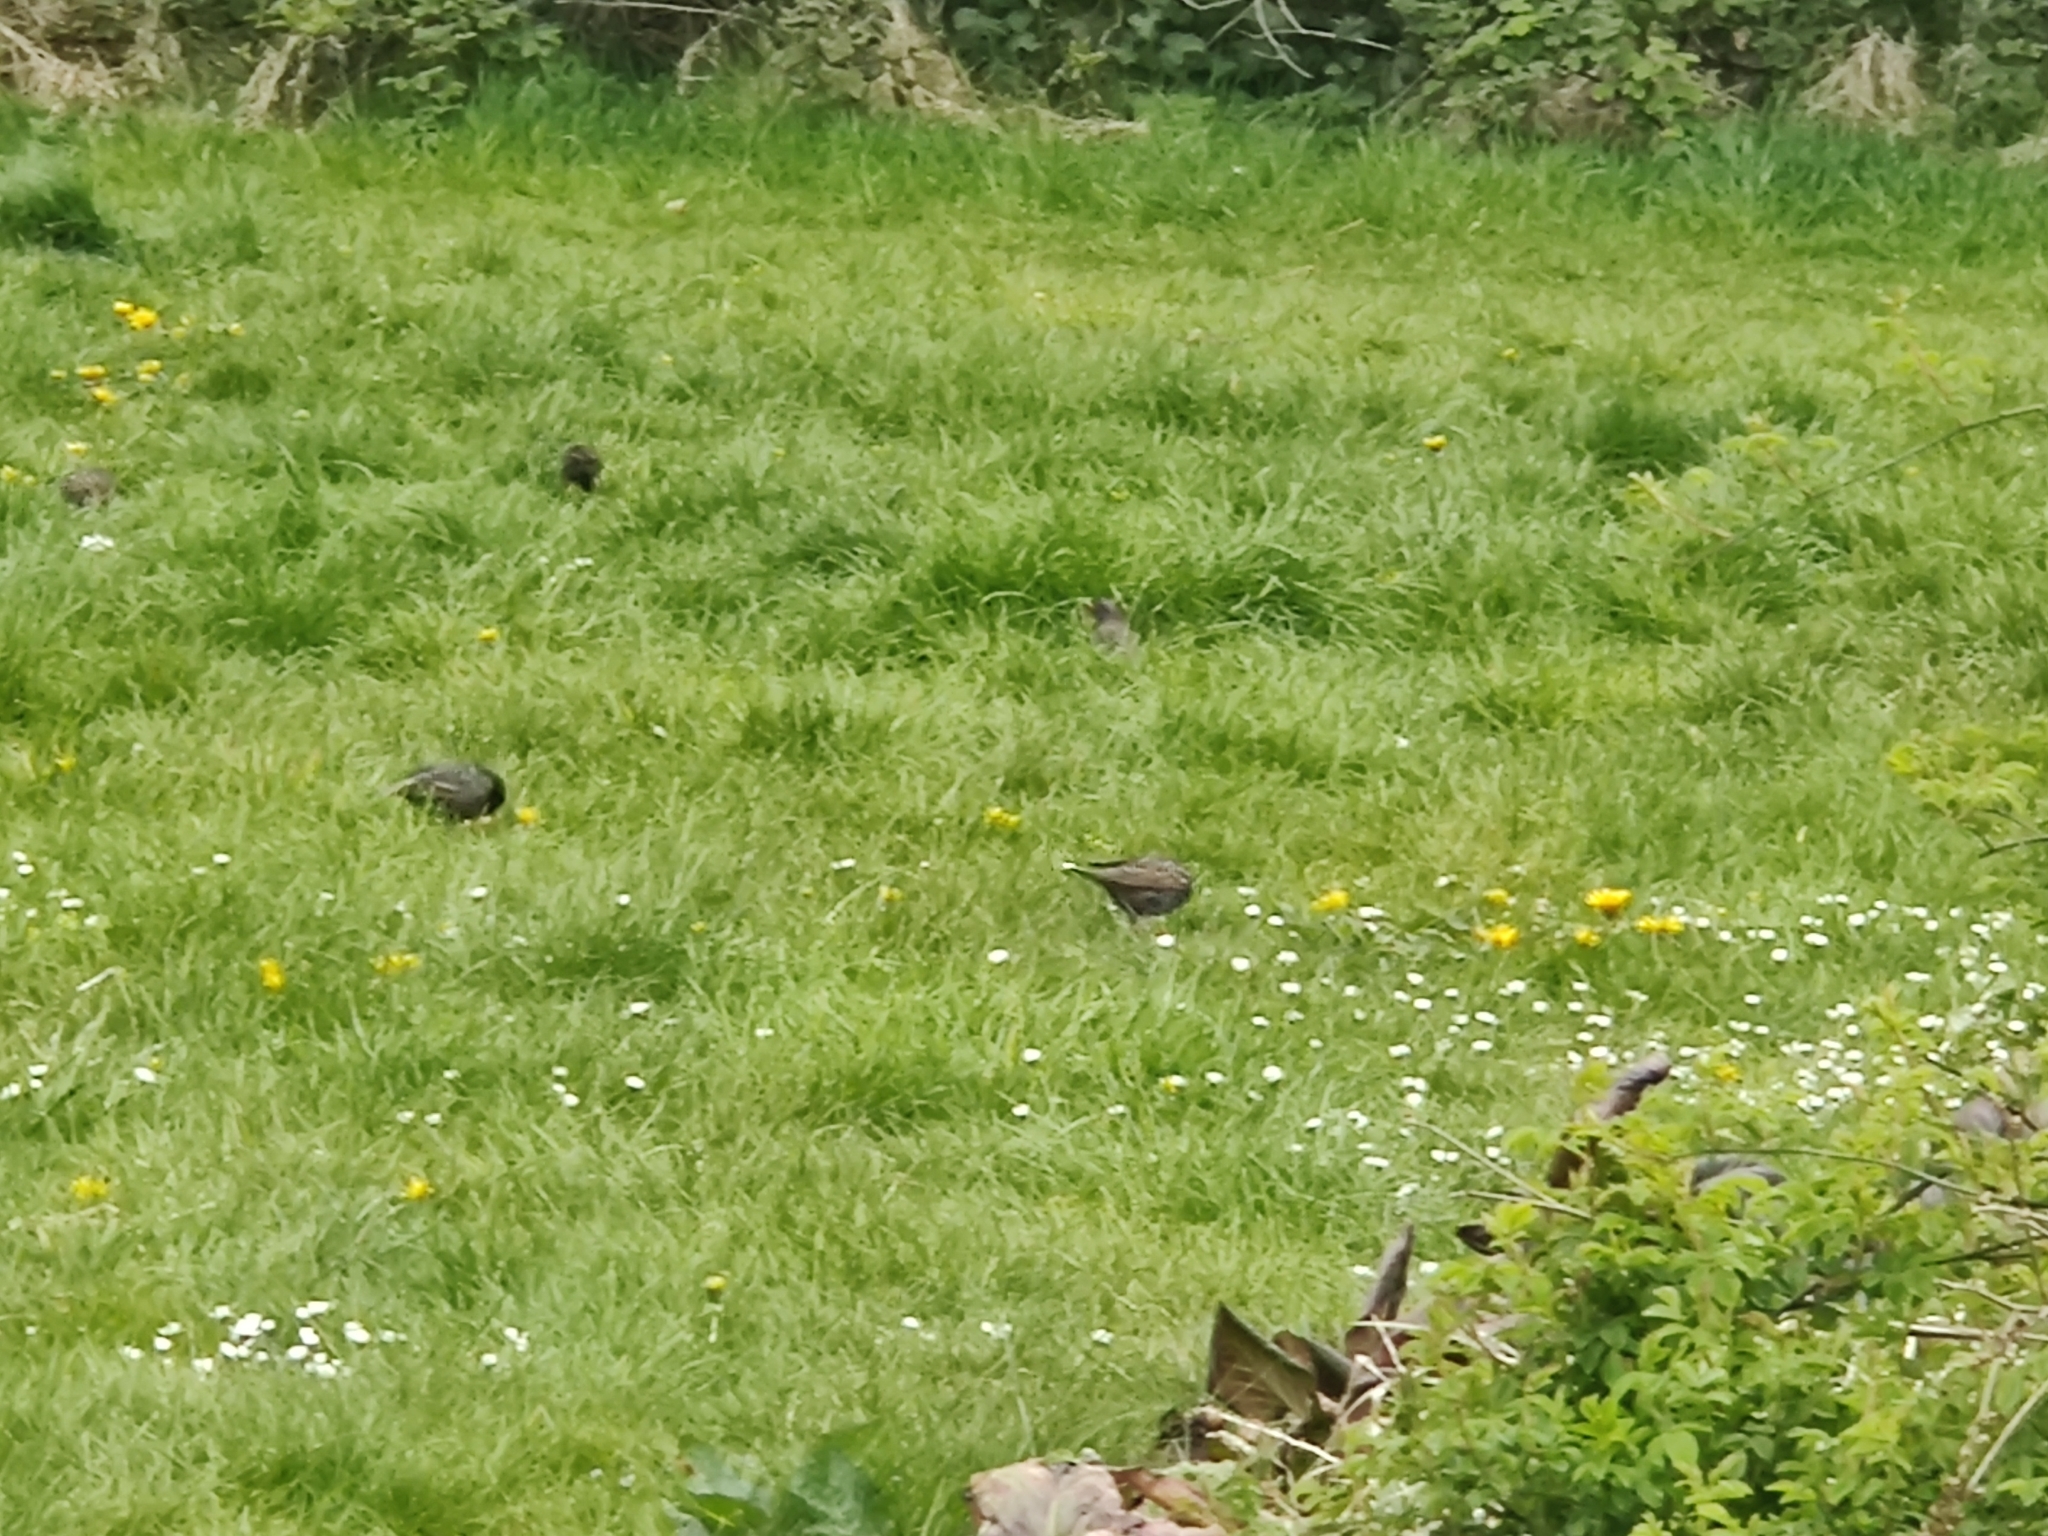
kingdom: Animalia
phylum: Chordata
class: Aves
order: Passeriformes
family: Sturnidae
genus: Sturnus
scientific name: Sturnus vulgaris
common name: Common starling
